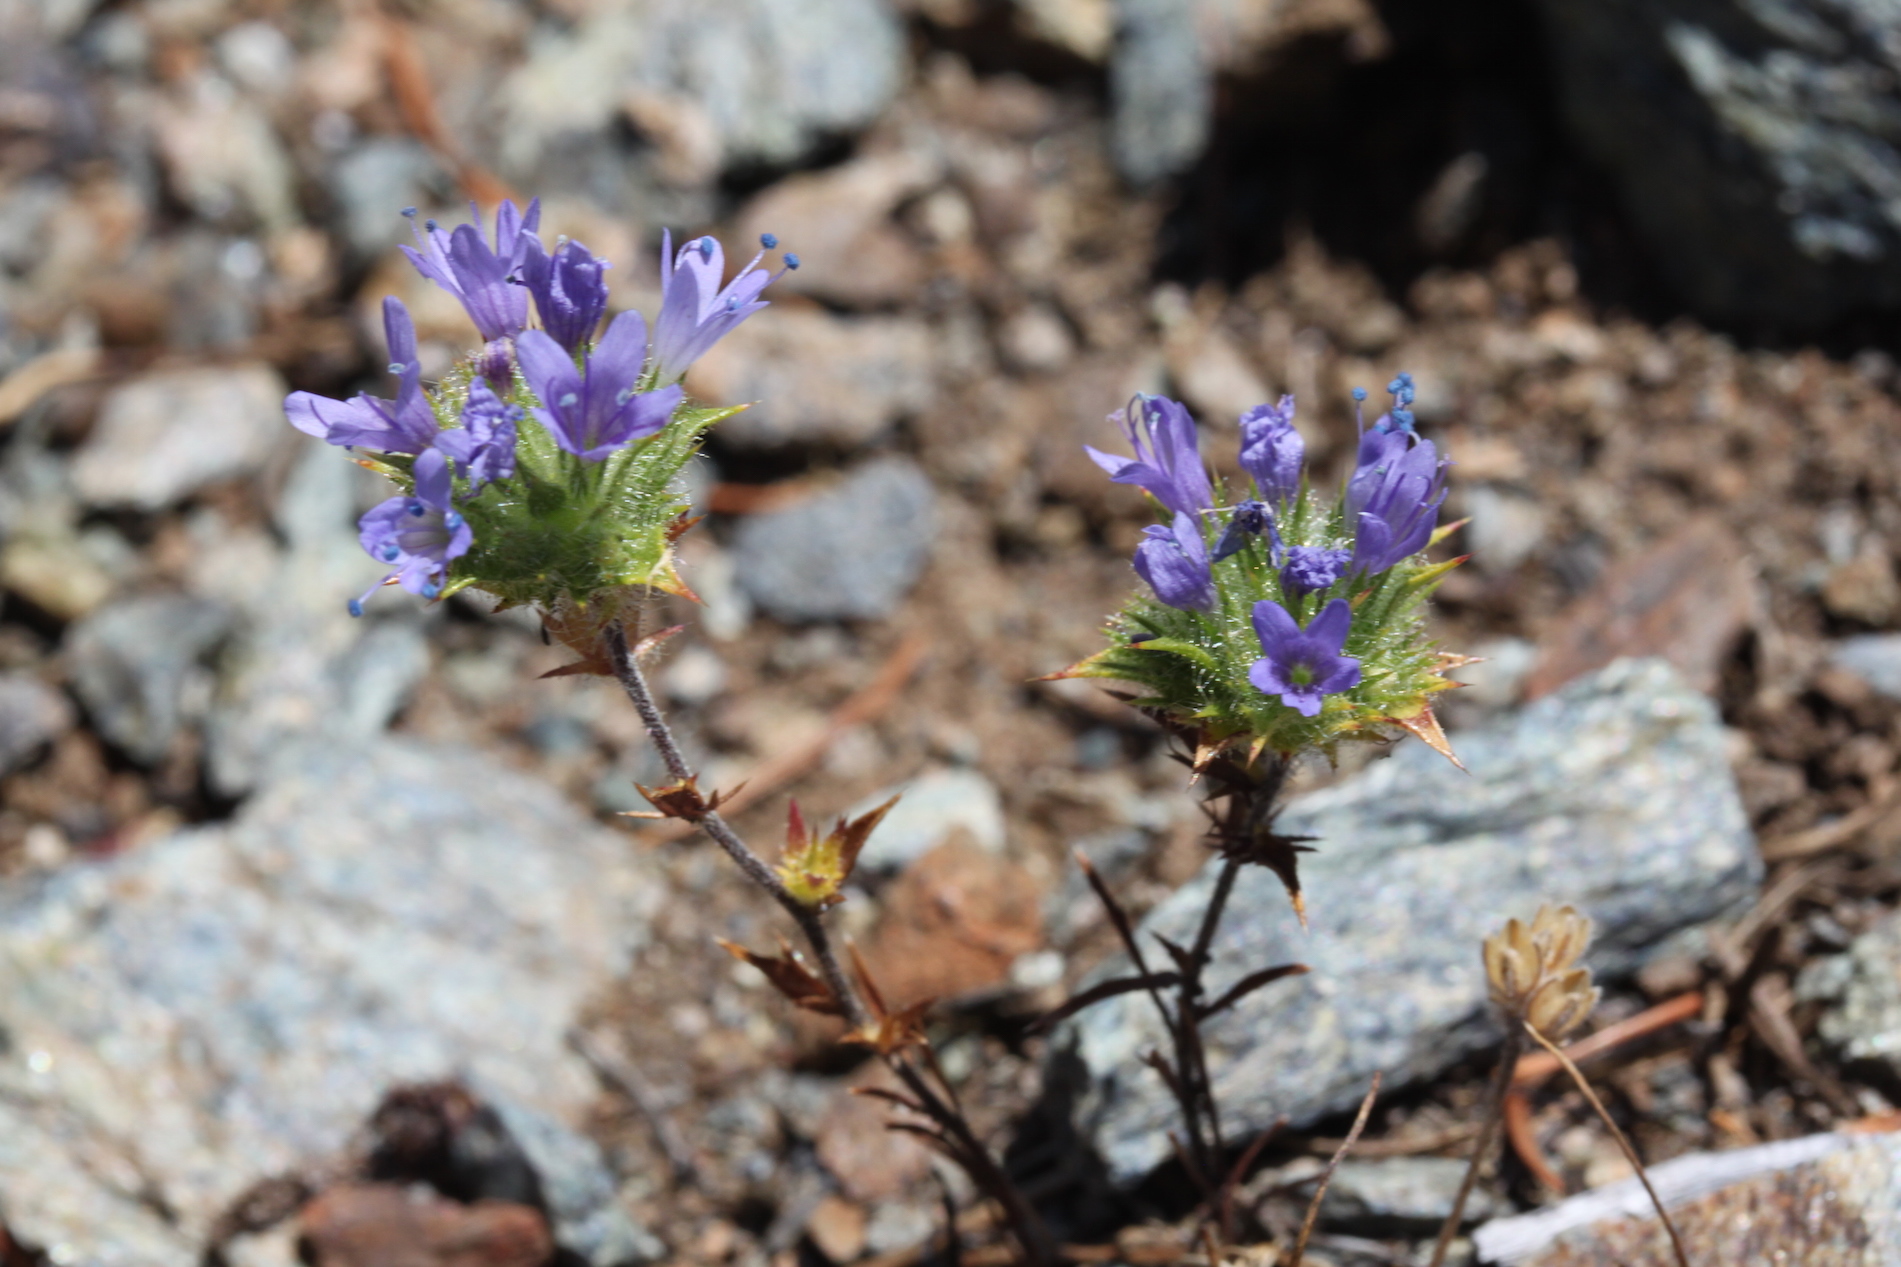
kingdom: Plantae
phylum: Tracheophyta
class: Magnoliopsida
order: Ericales
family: Polemoniaceae
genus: Navarretia
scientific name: Navarretia heterodoxa
